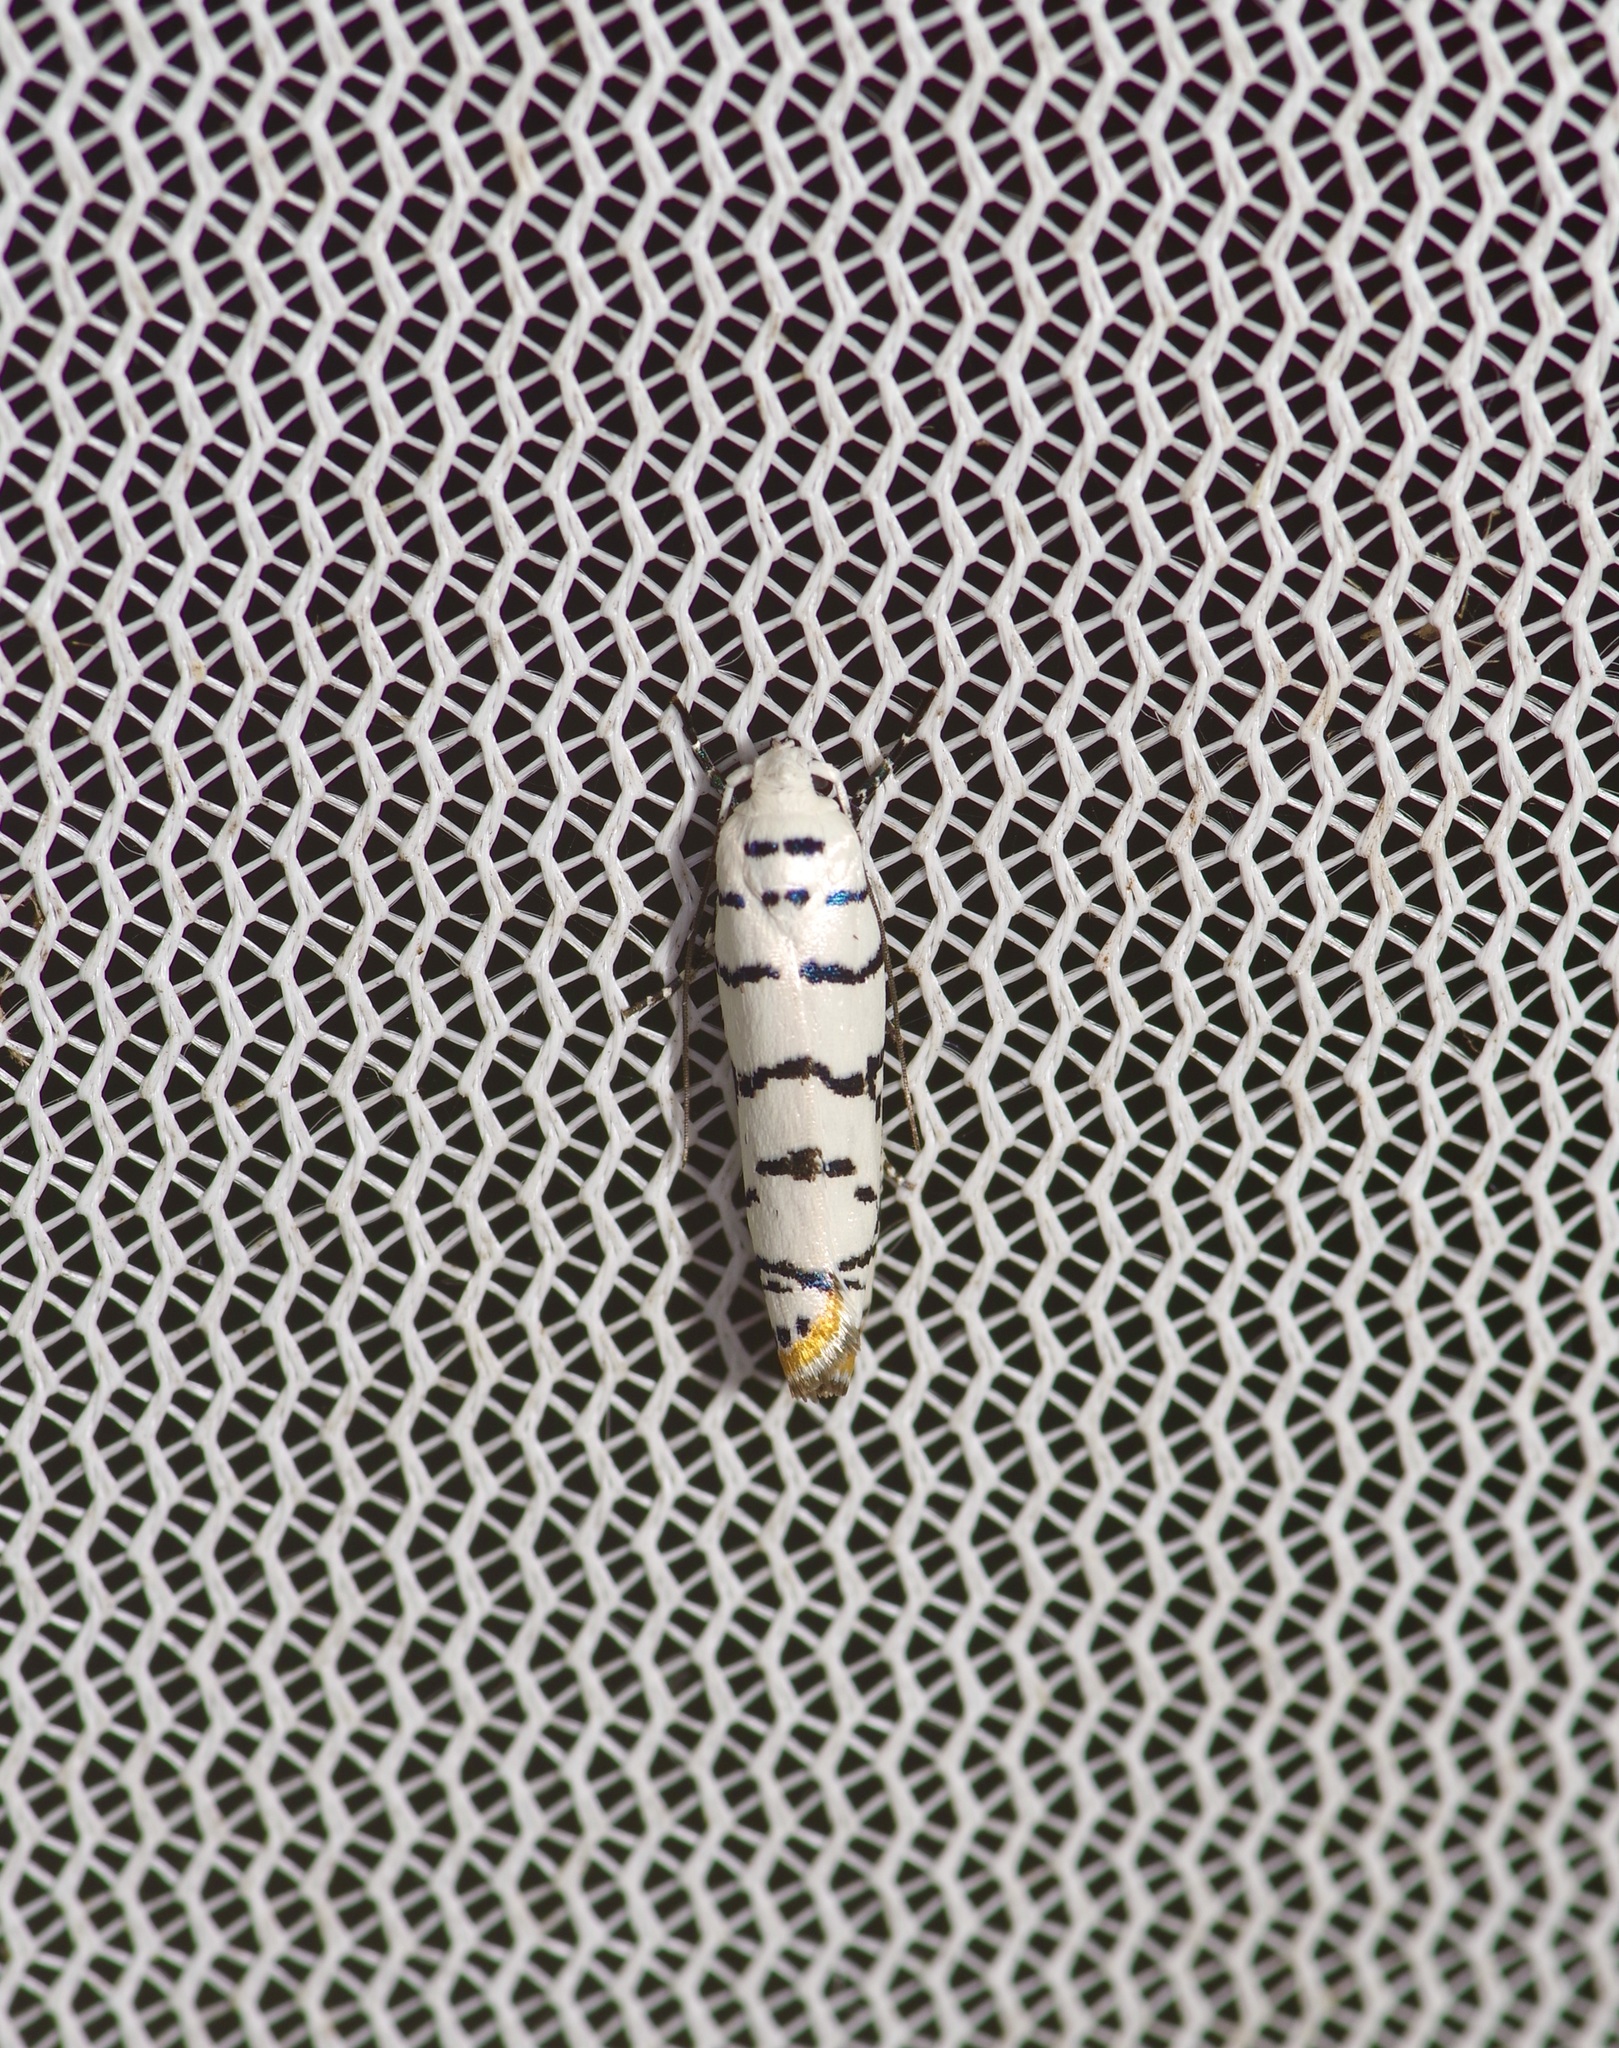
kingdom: Animalia
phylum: Arthropoda
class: Insecta
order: Lepidoptera
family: Ethmiidae
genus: Ethmia
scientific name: Ethmia delliella
